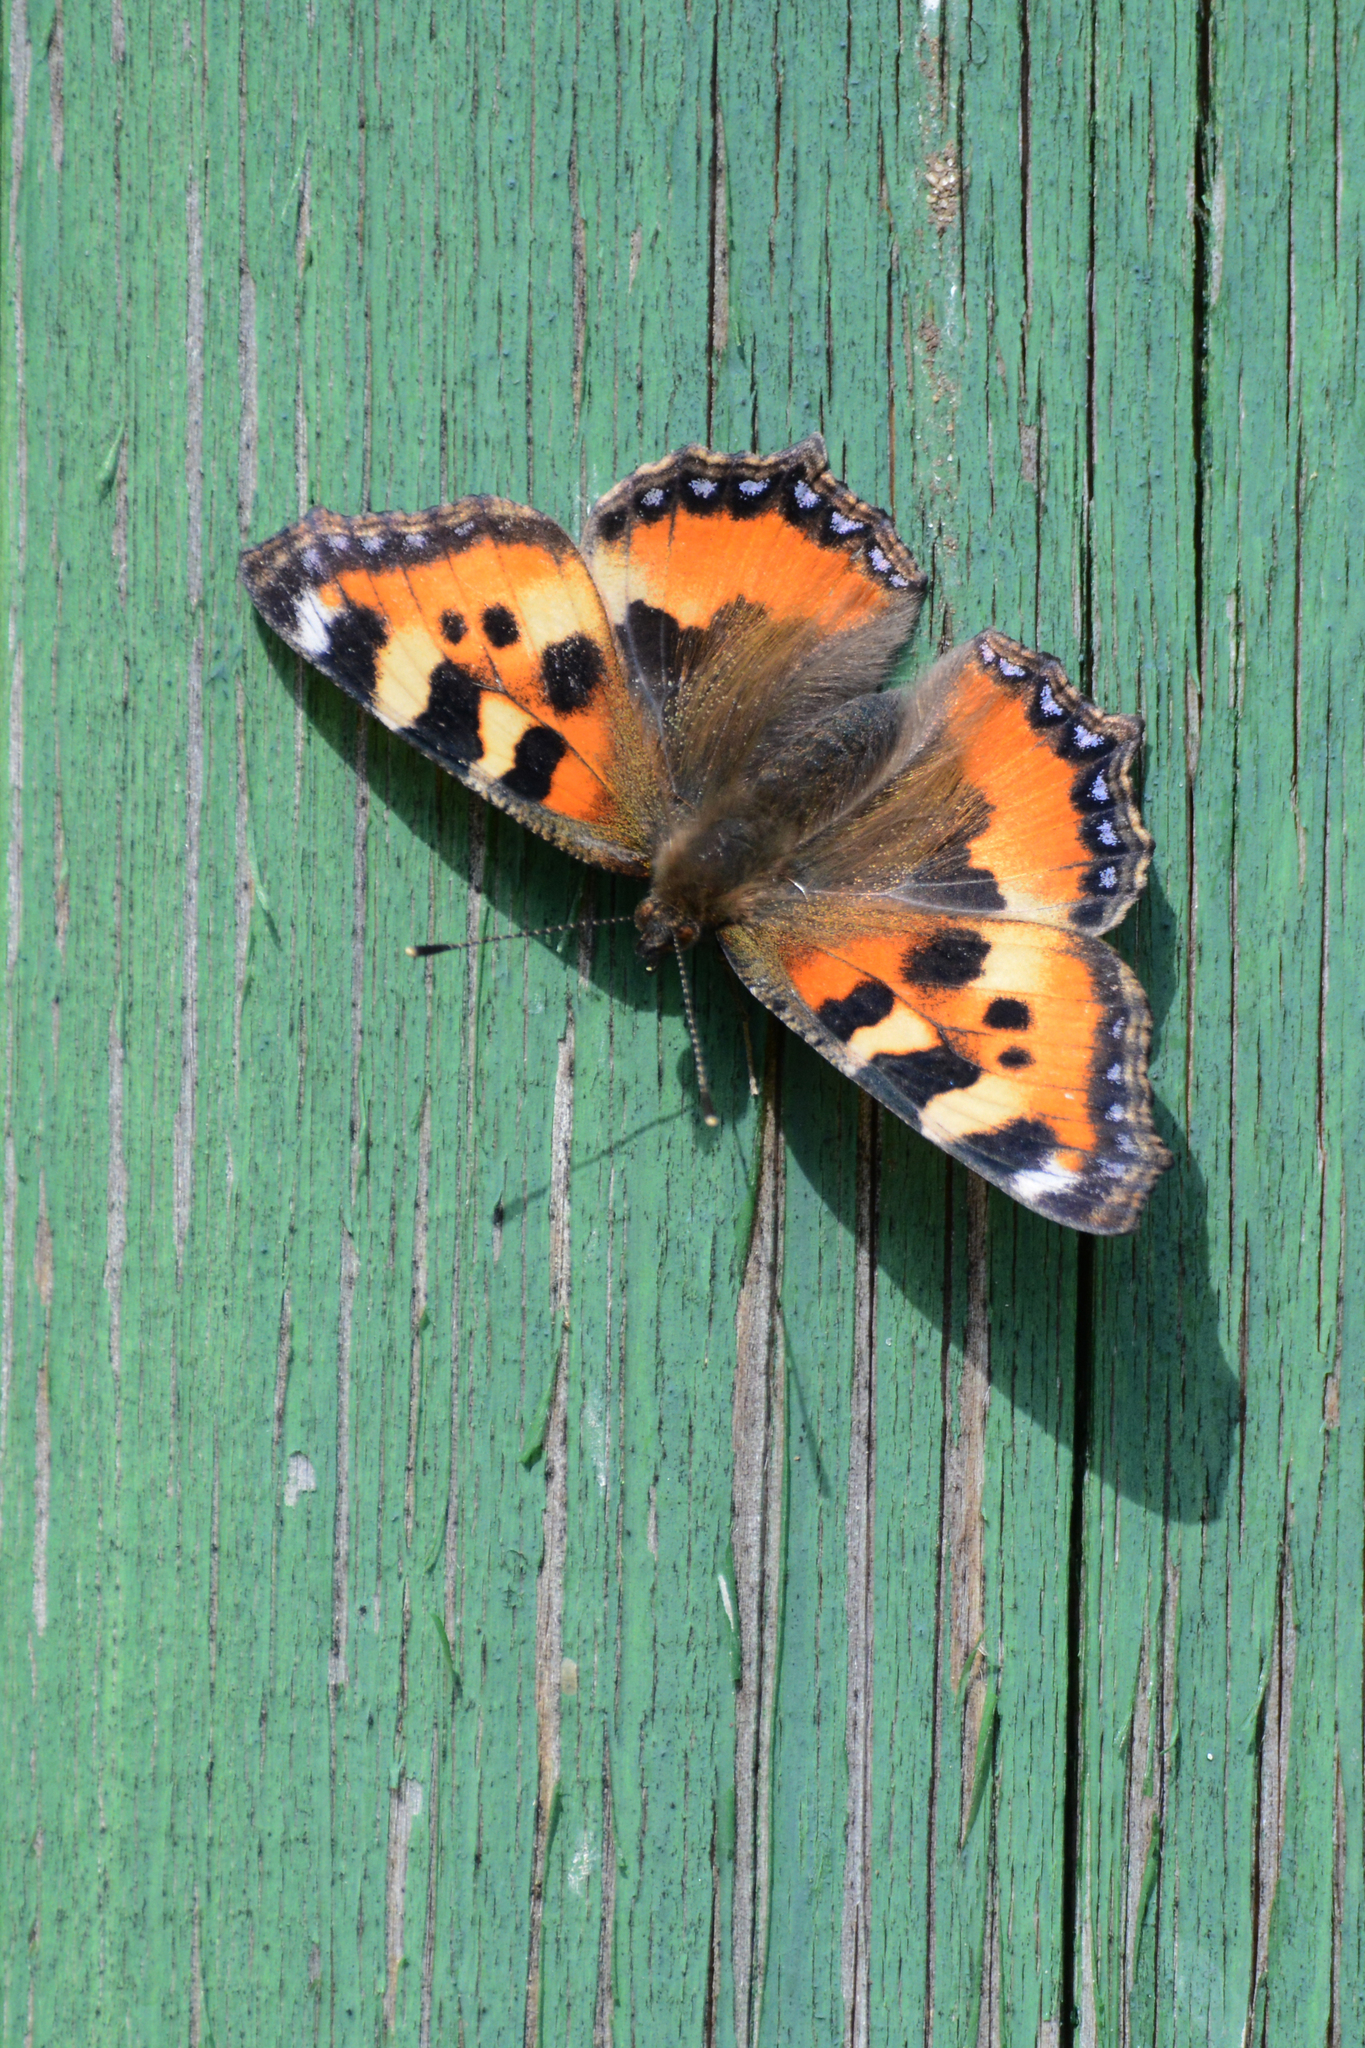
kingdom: Animalia
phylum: Arthropoda
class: Insecta
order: Lepidoptera
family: Nymphalidae
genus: Aglais
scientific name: Aglais urticae
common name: Small tortoiseshell
